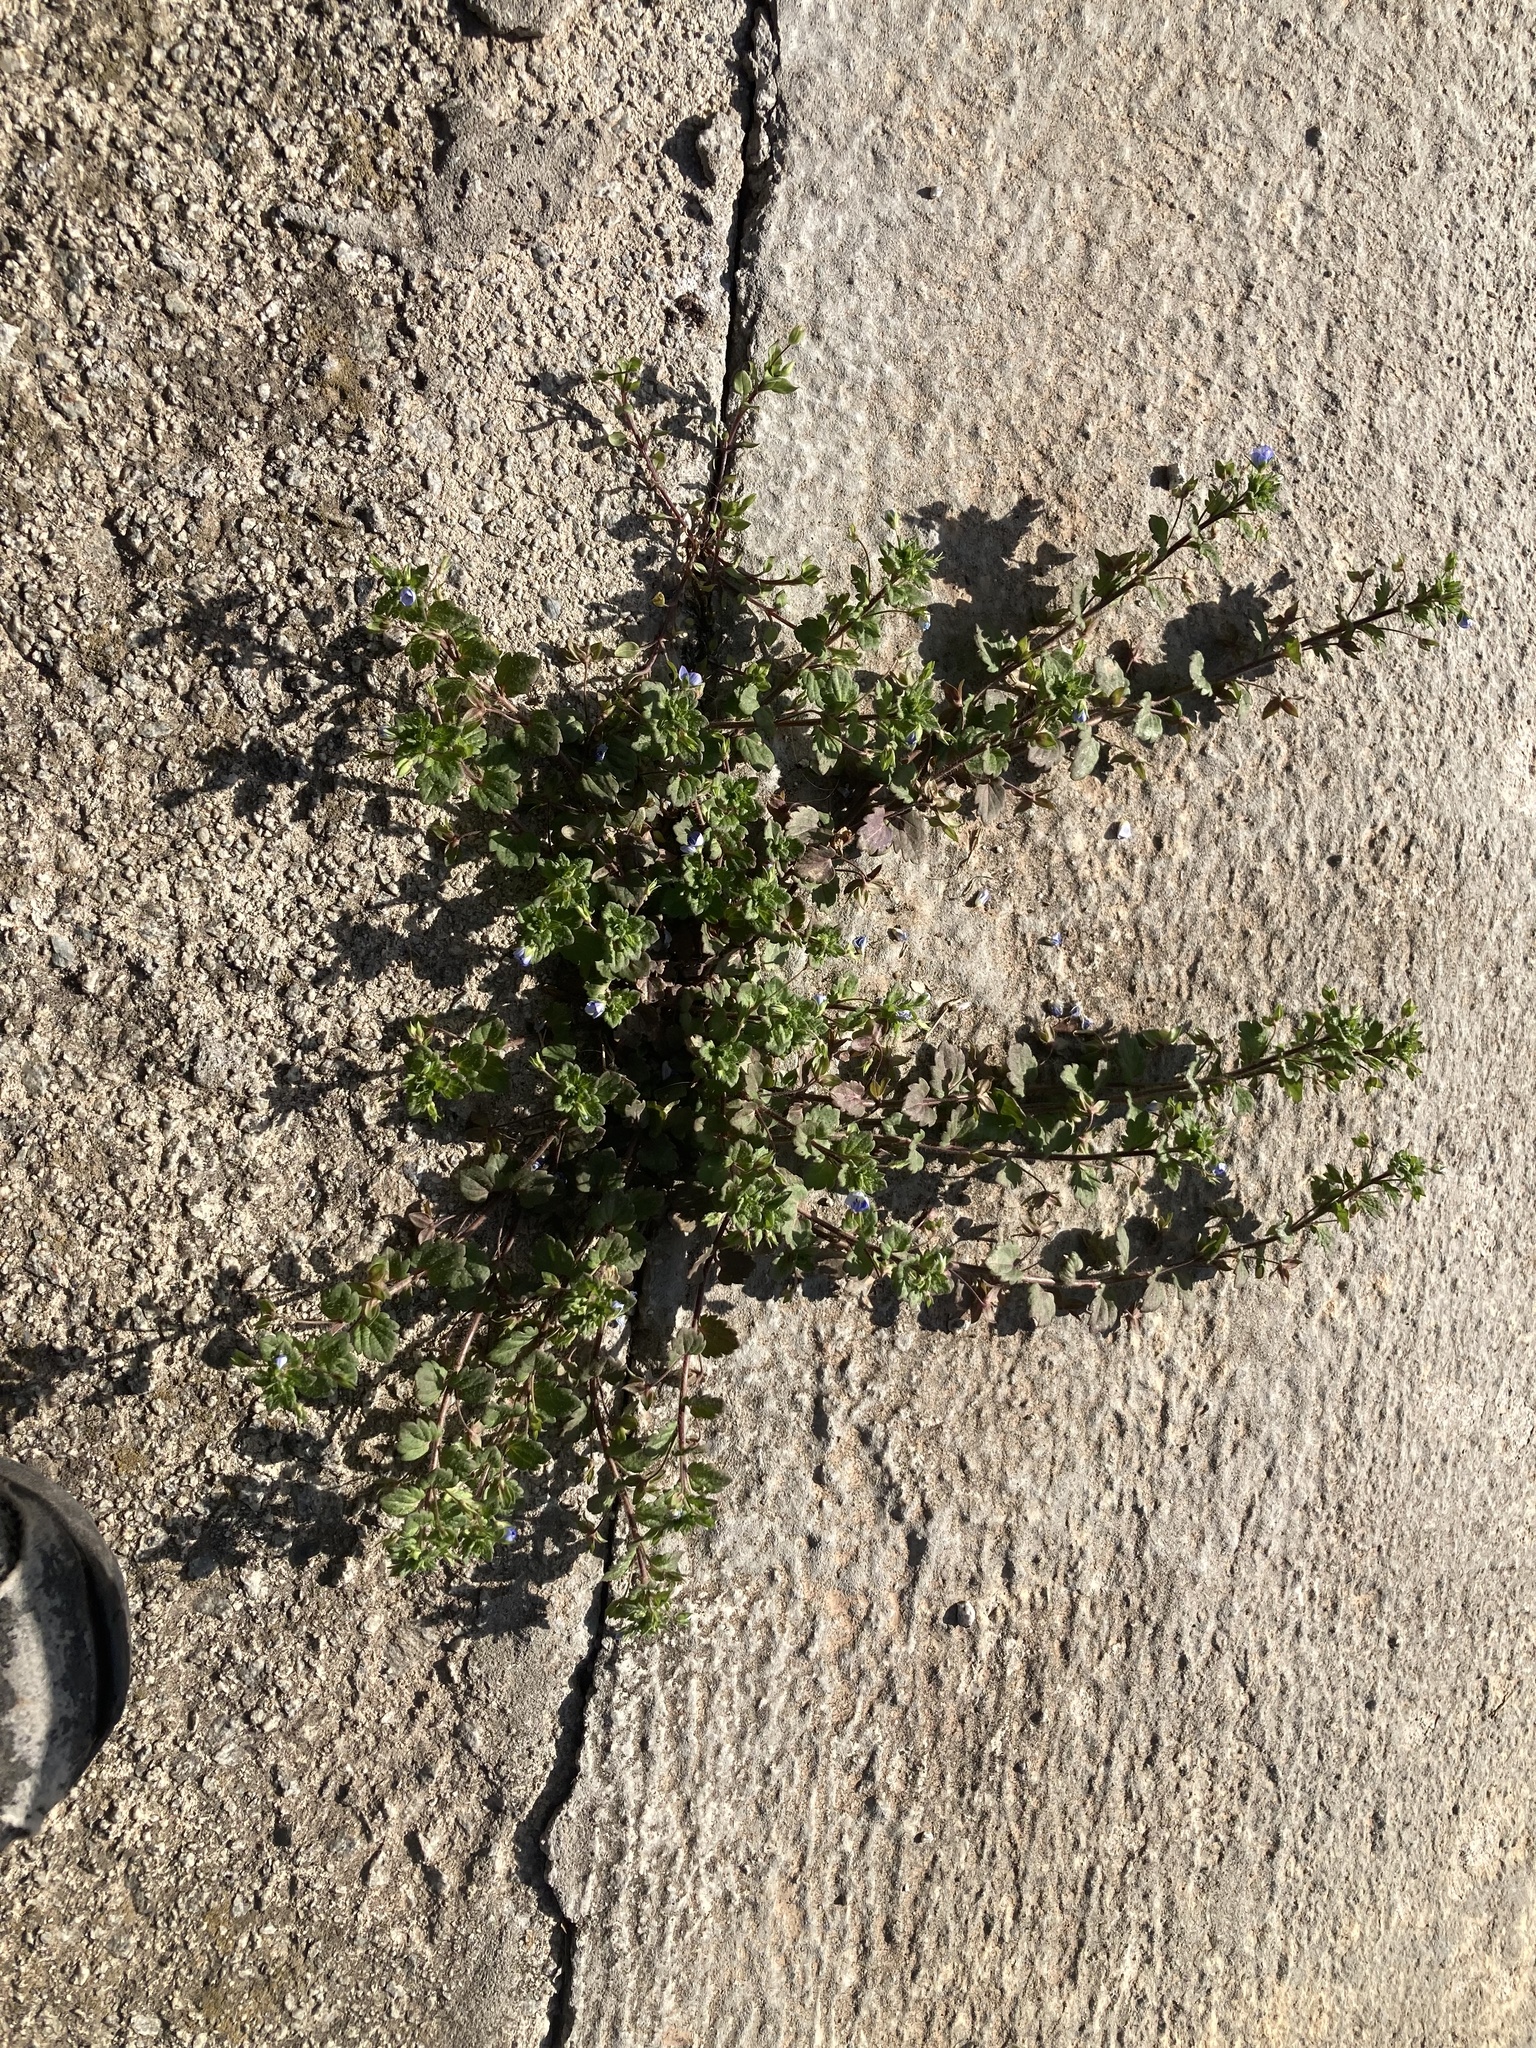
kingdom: Plantae
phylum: Tracheophyta
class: Magnoliopsida
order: Lamiales
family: Plantaginaceae
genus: Veronica
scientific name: Veronica persica
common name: Common field-speedwell
